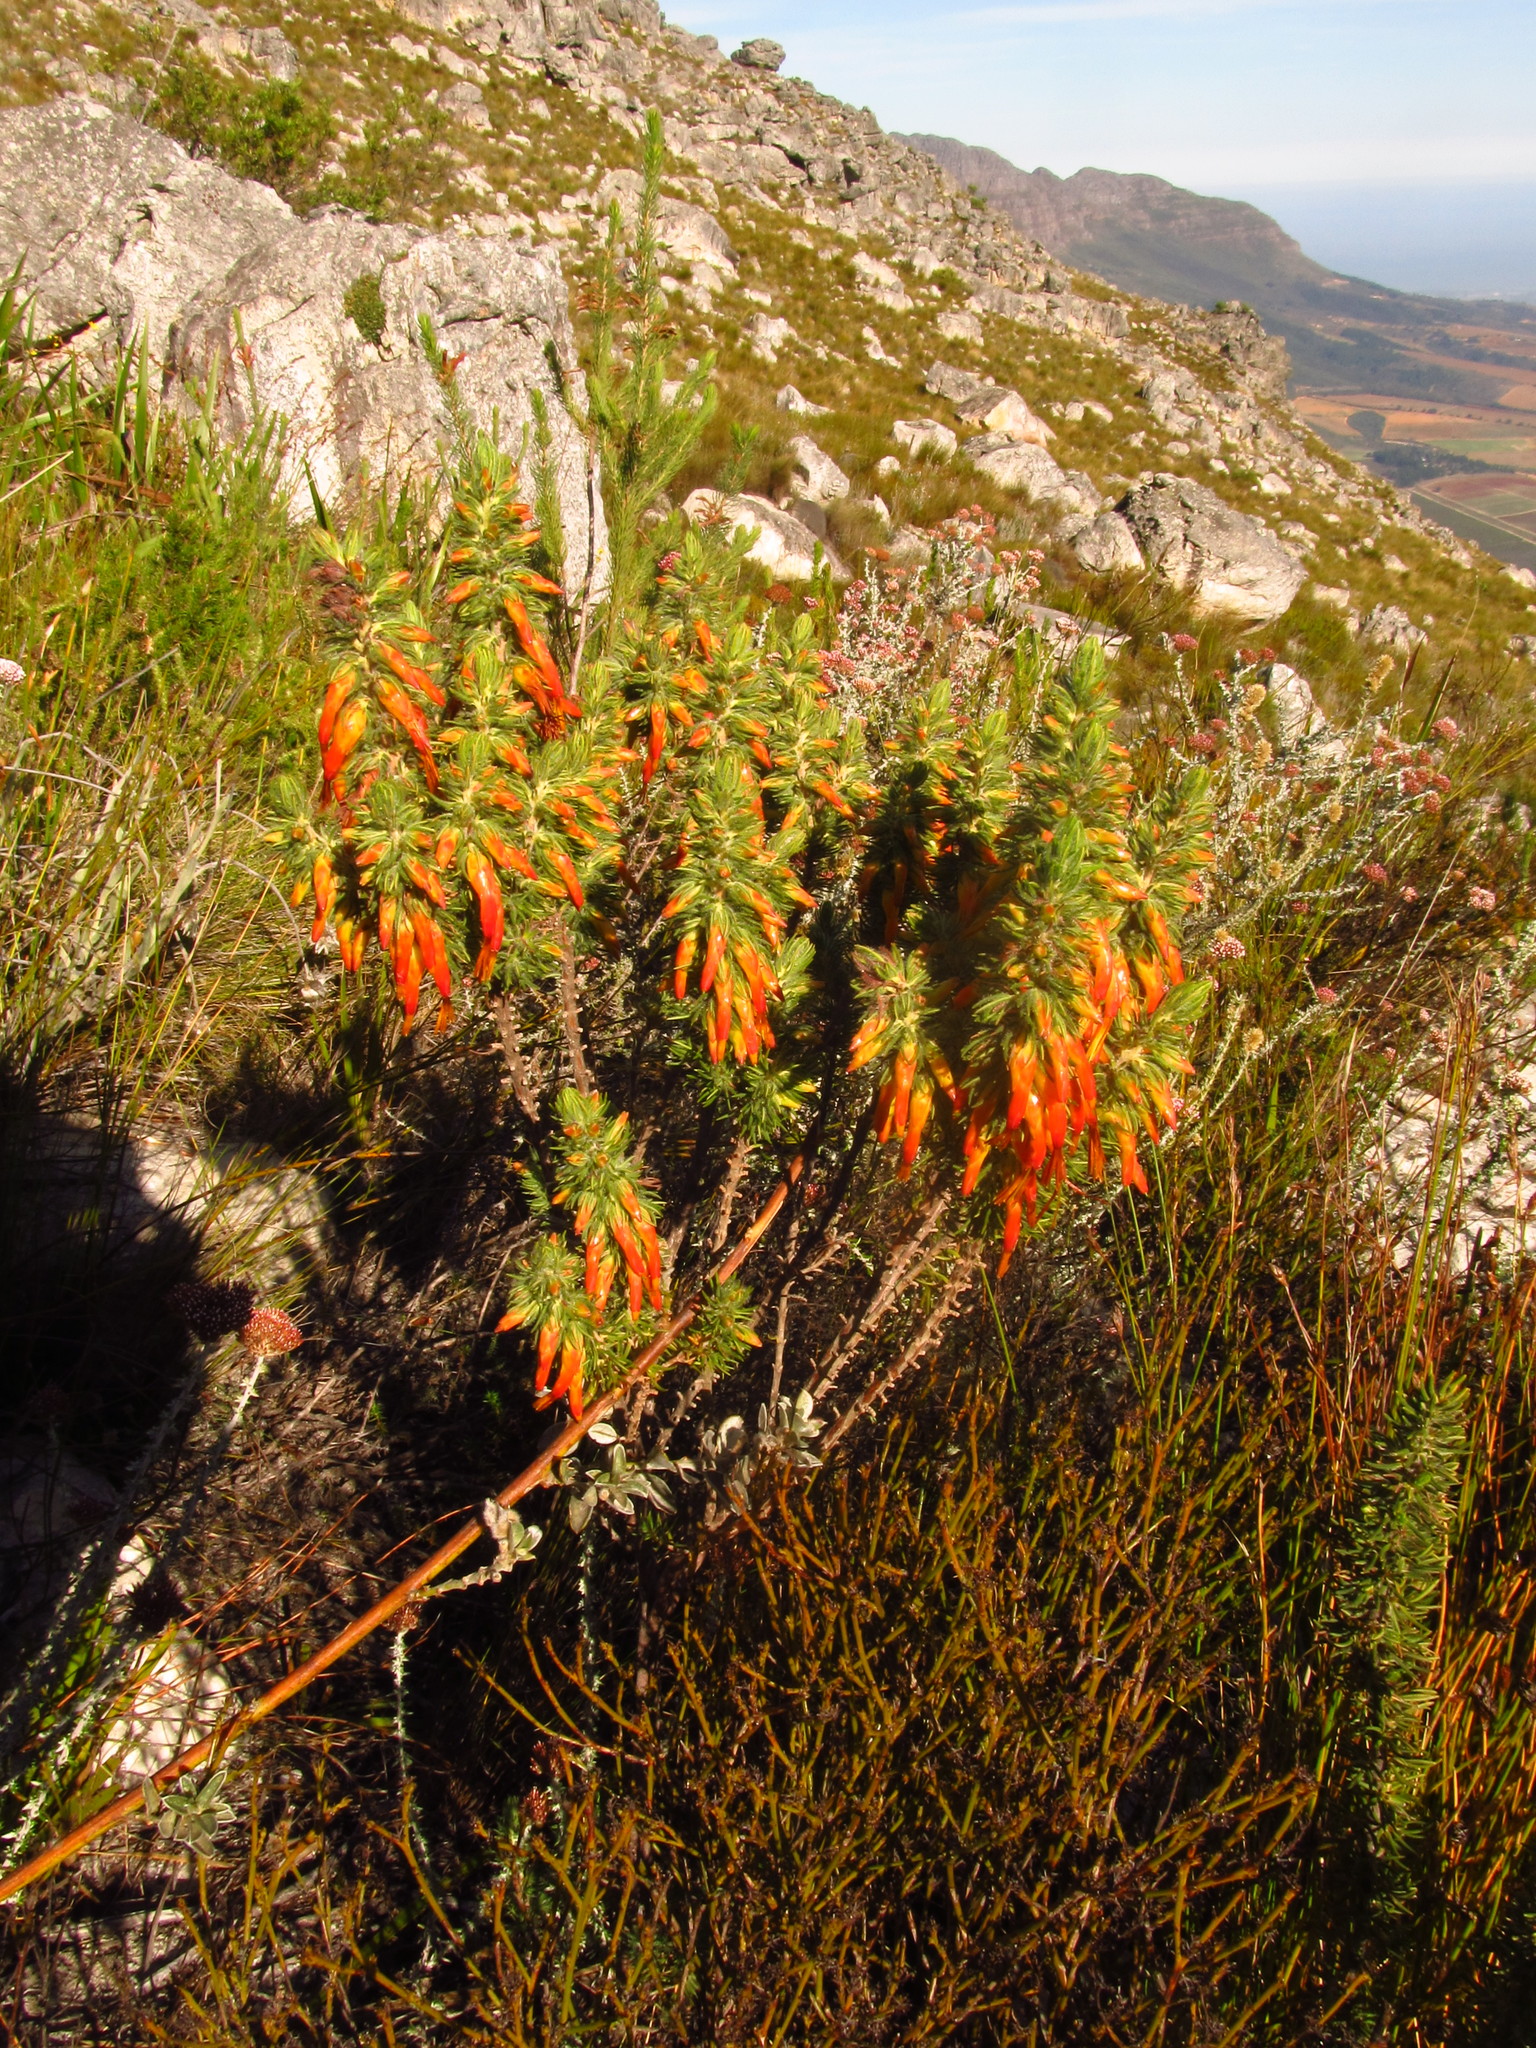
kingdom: Plantae
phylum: Tracheophyta
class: Magnoliopsida
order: Ericales
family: Ericaceae
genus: Erica
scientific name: Erica melastoma
